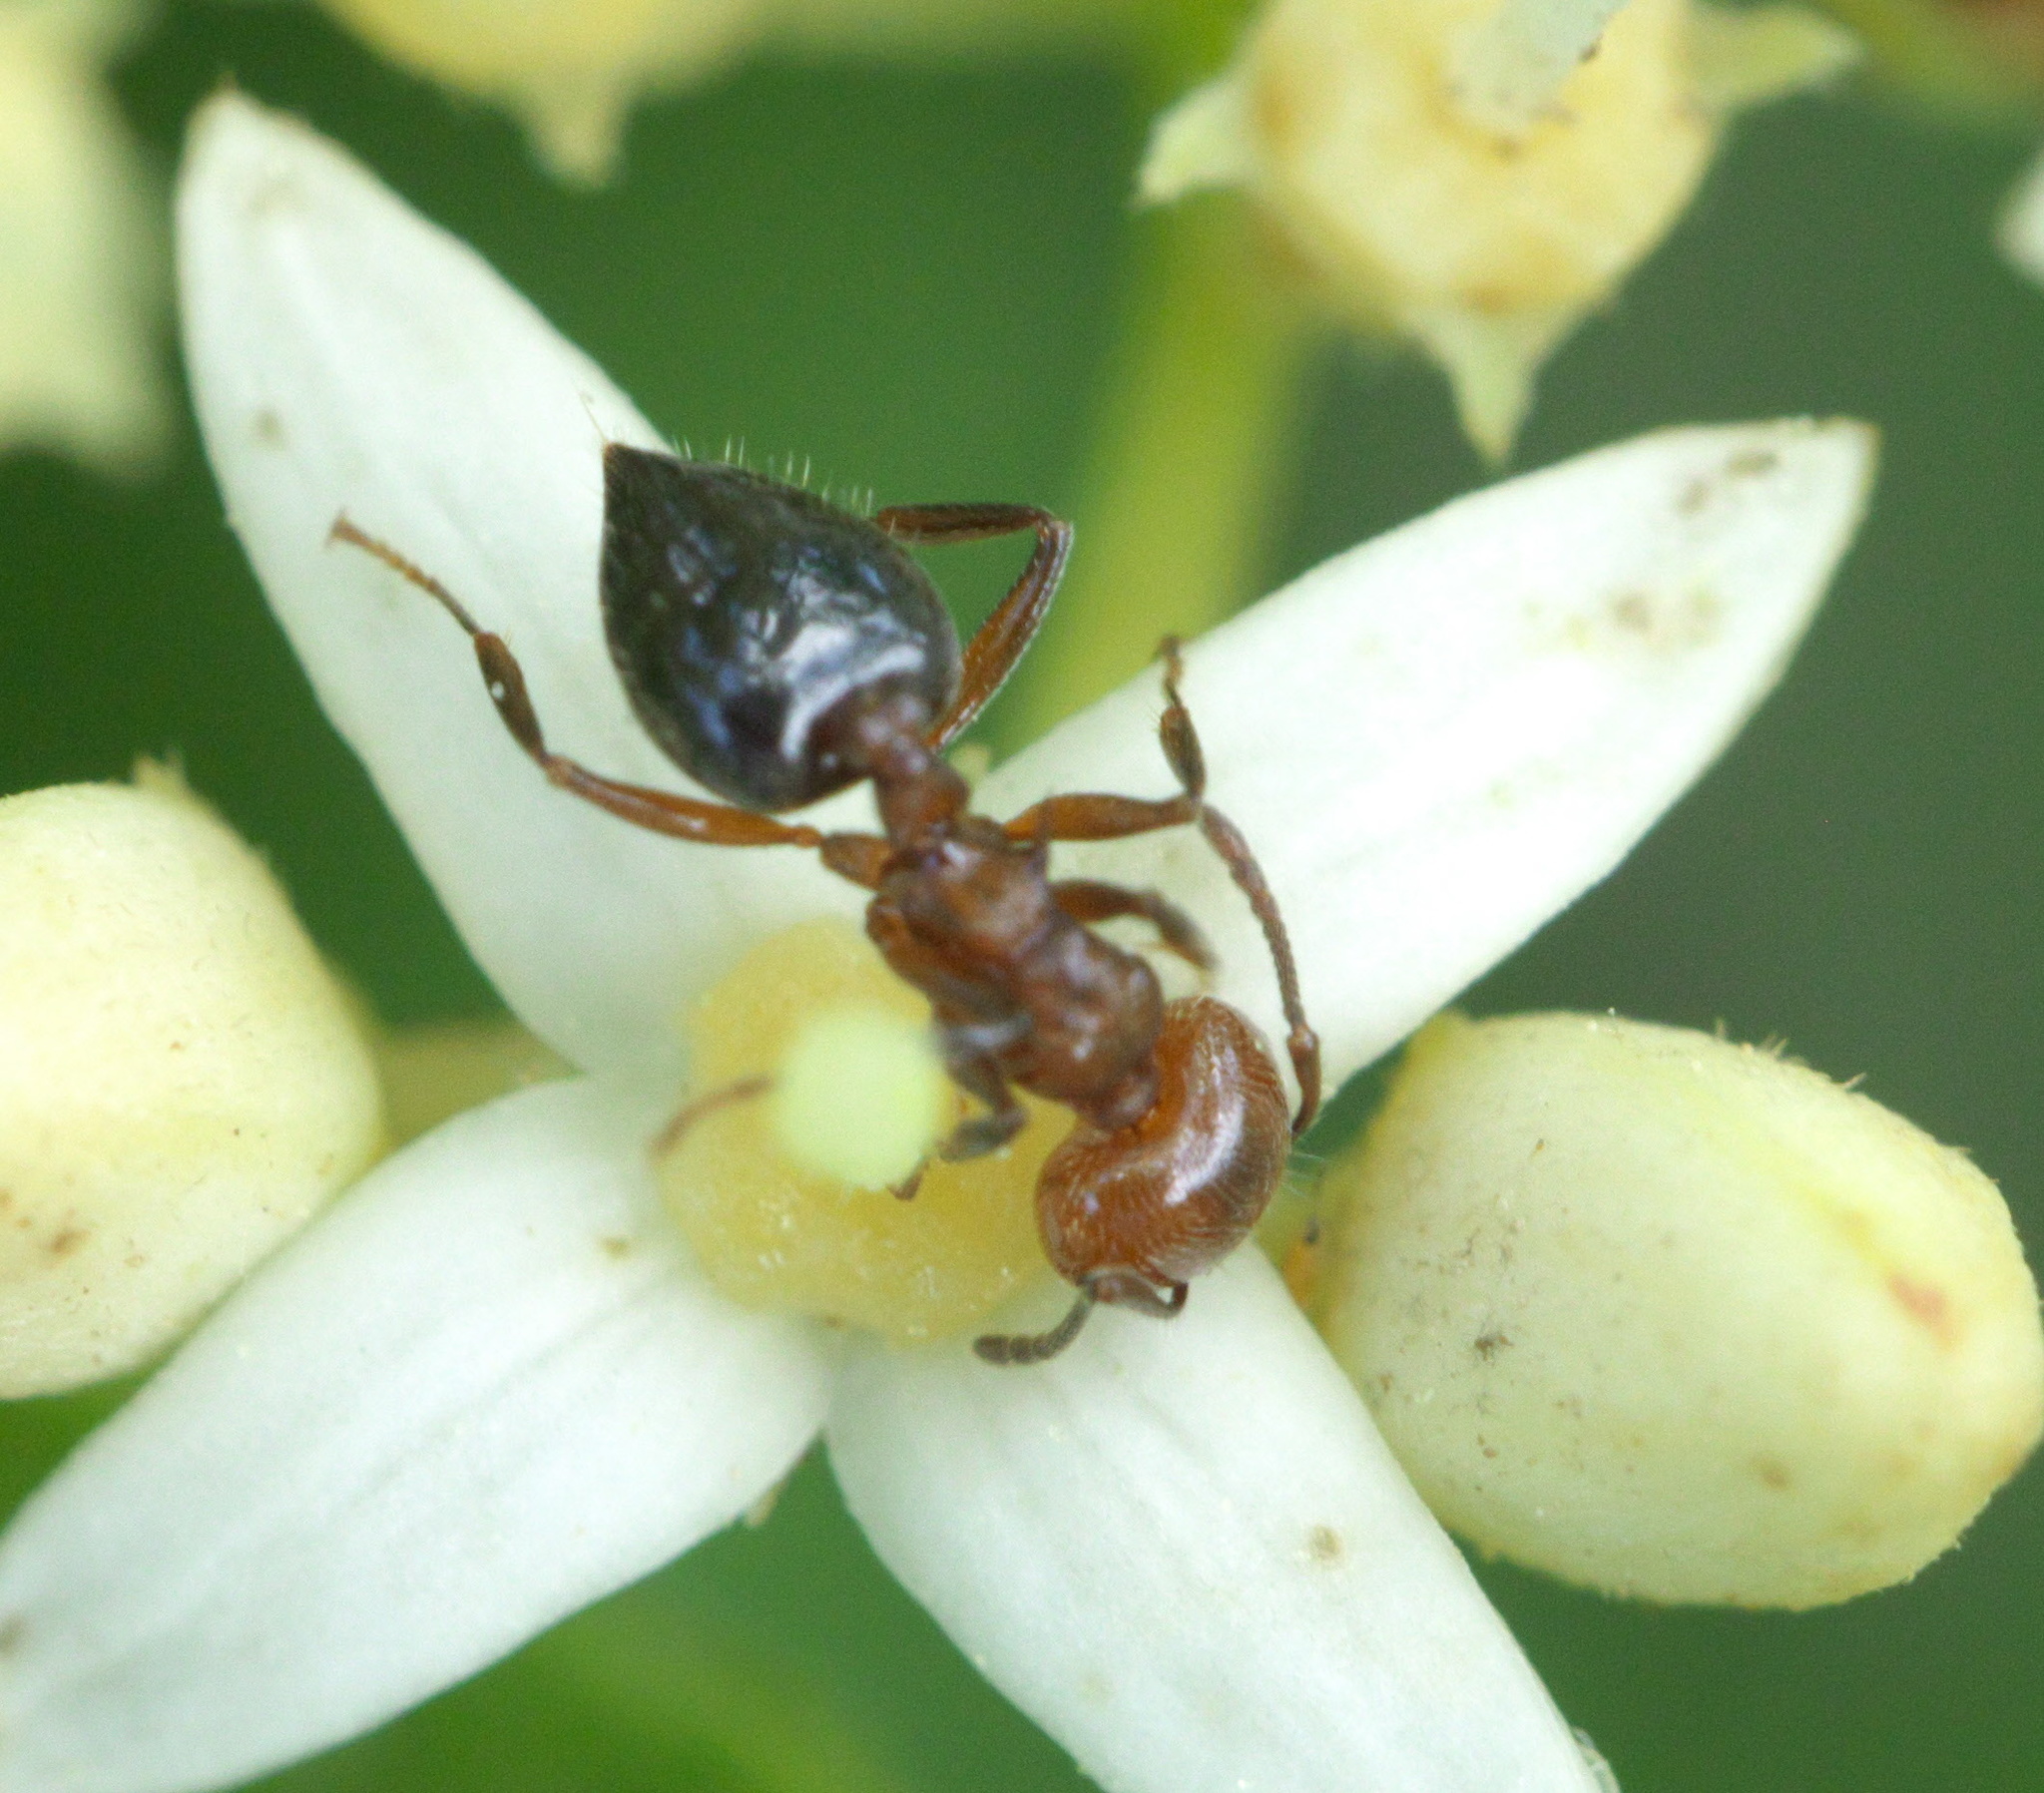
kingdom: Animalia
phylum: Arthropoda
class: Insecta
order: Hymenoptera
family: Formicidae
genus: Crematogaster
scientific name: Crematogaster laeviuscula
